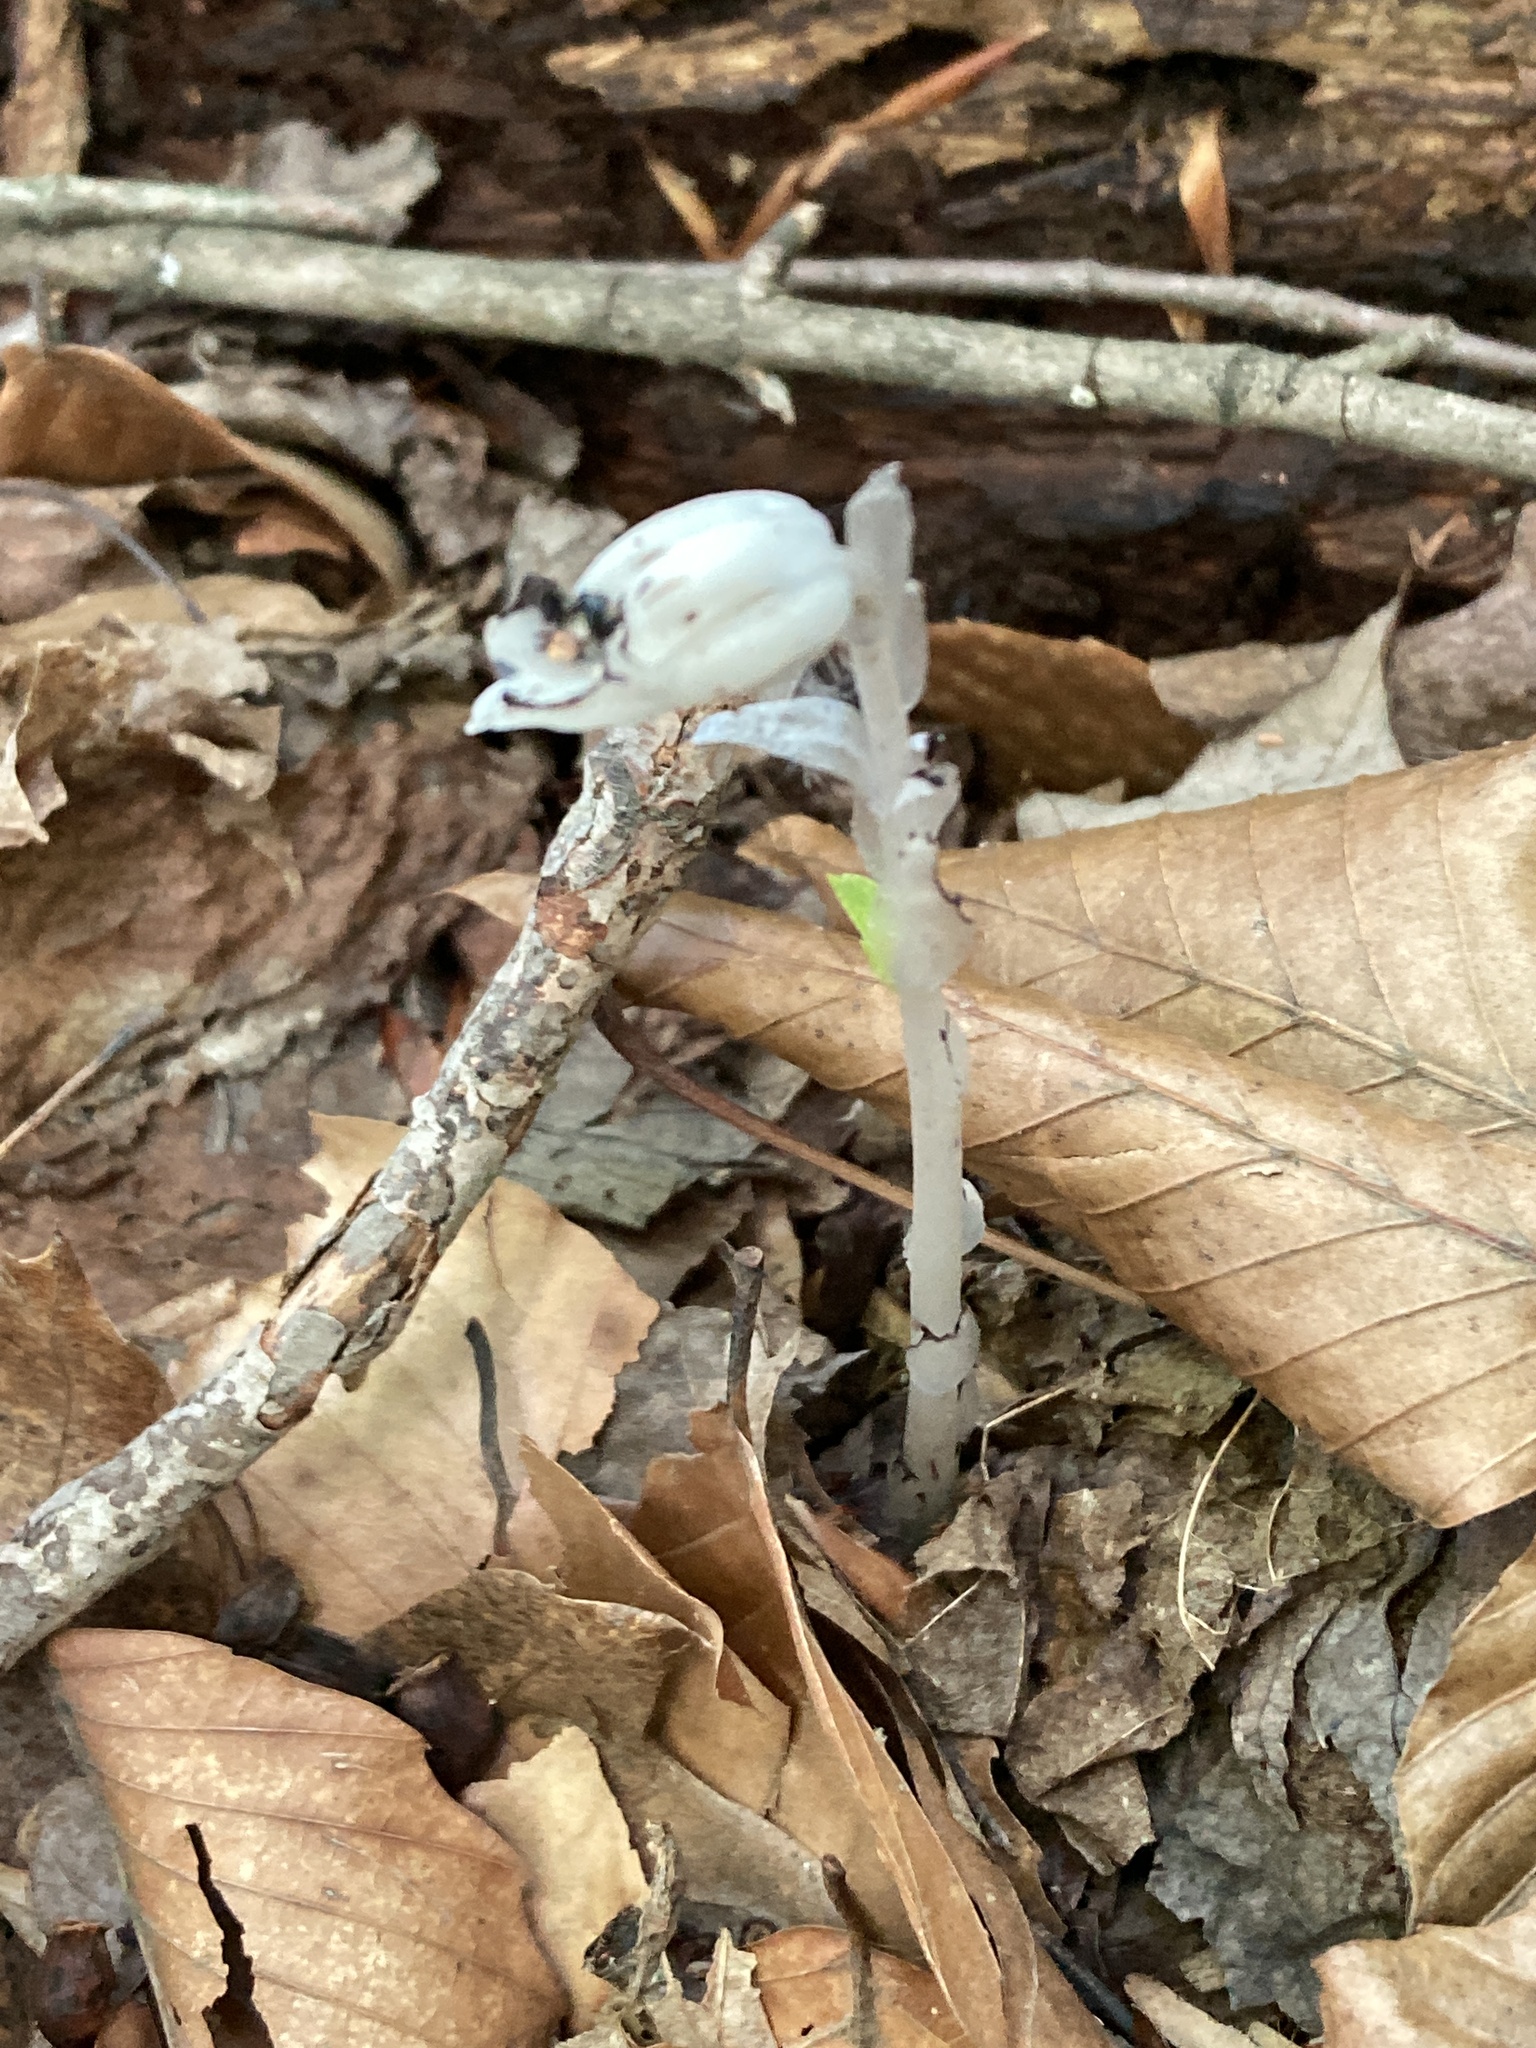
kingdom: Plantae
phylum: Tracheophyta
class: Magnoliopsida
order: Ericales
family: Ericaceae
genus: Monotropa
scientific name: Monotropa uniflora
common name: Convulsion root
